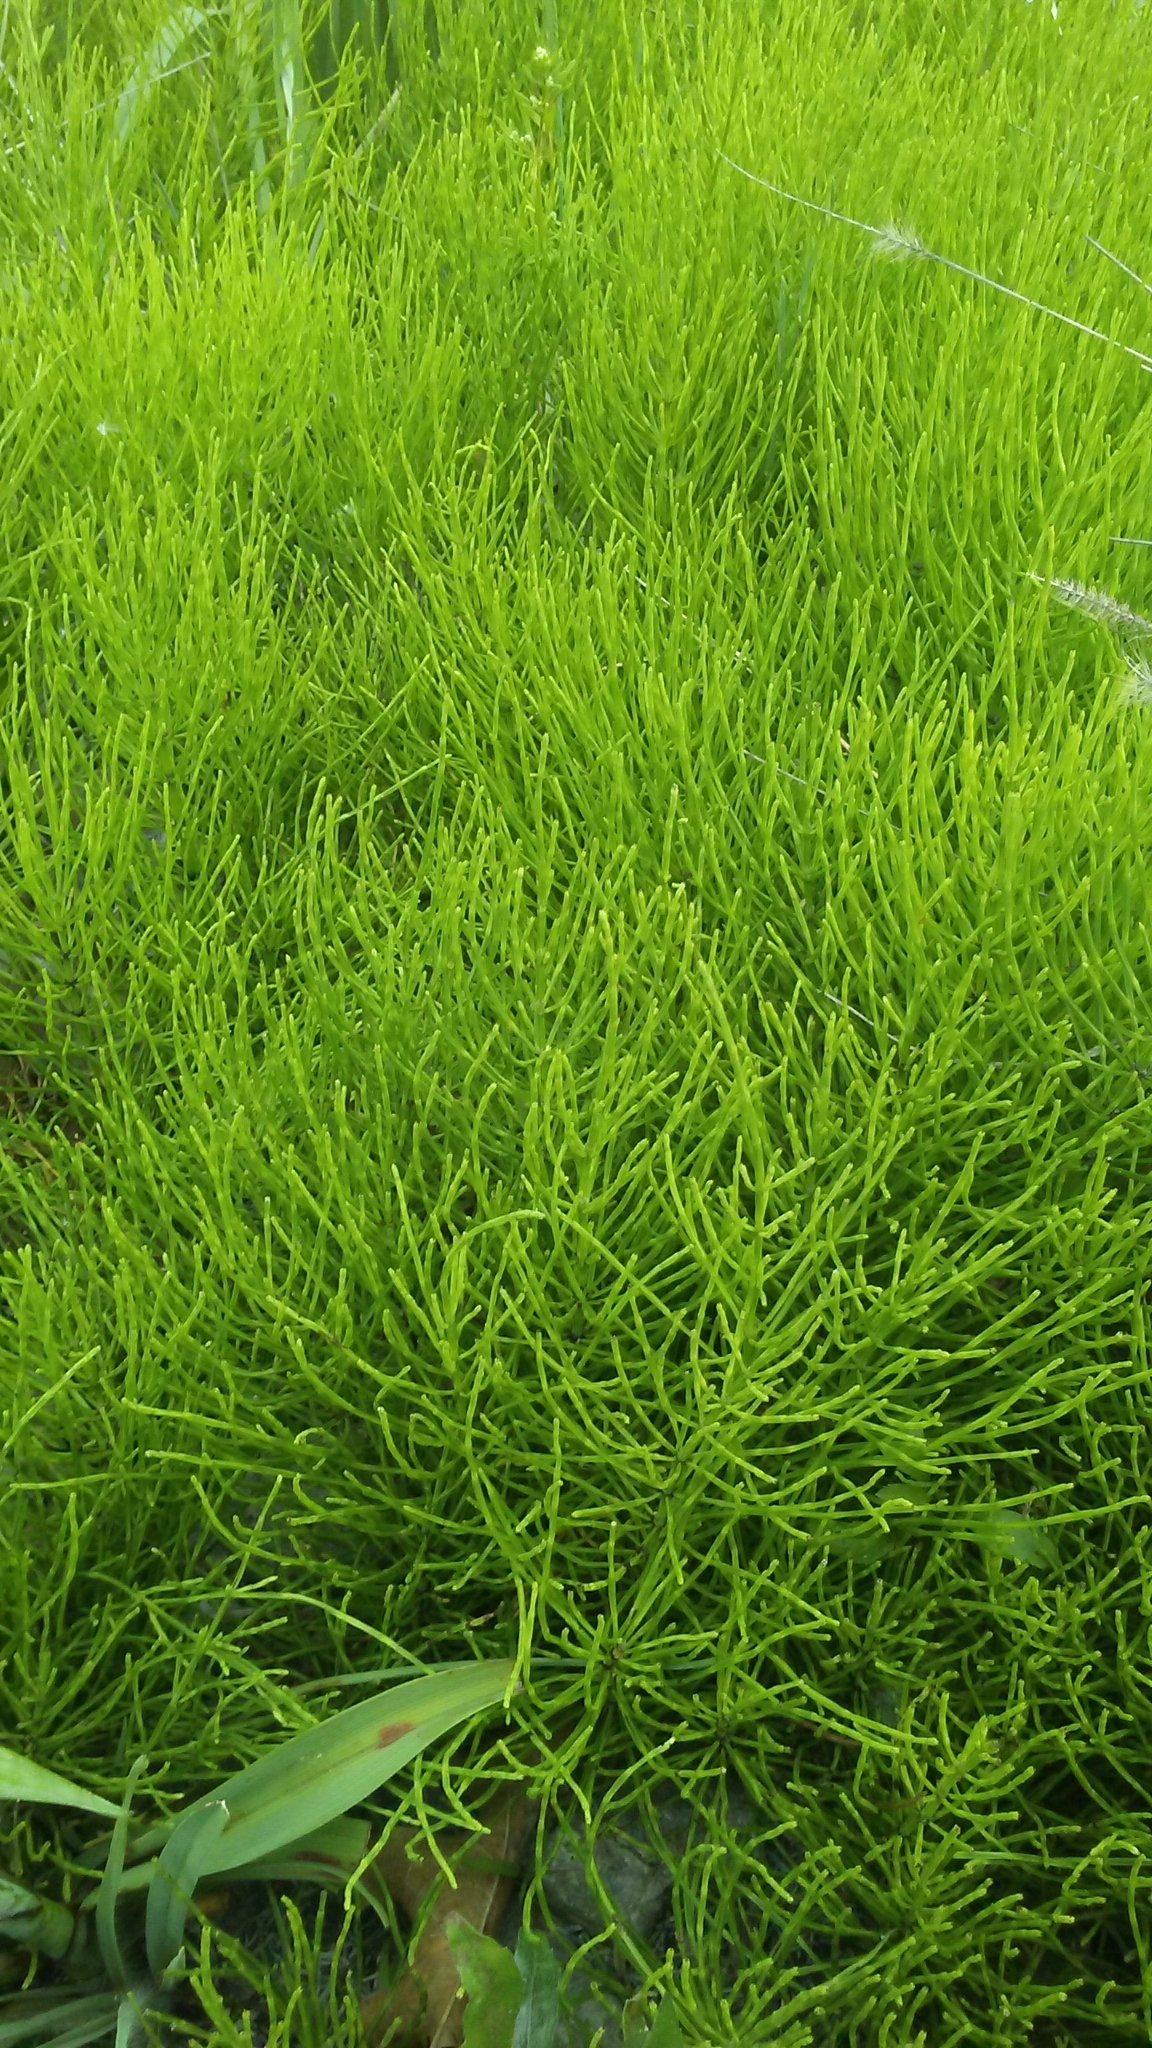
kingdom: Plantae
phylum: Tracheophyta
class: Polypodiopsida
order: Equisetales
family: Equisetaceae
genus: Equisetum
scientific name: Equisetum arvense
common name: Field horsetail
